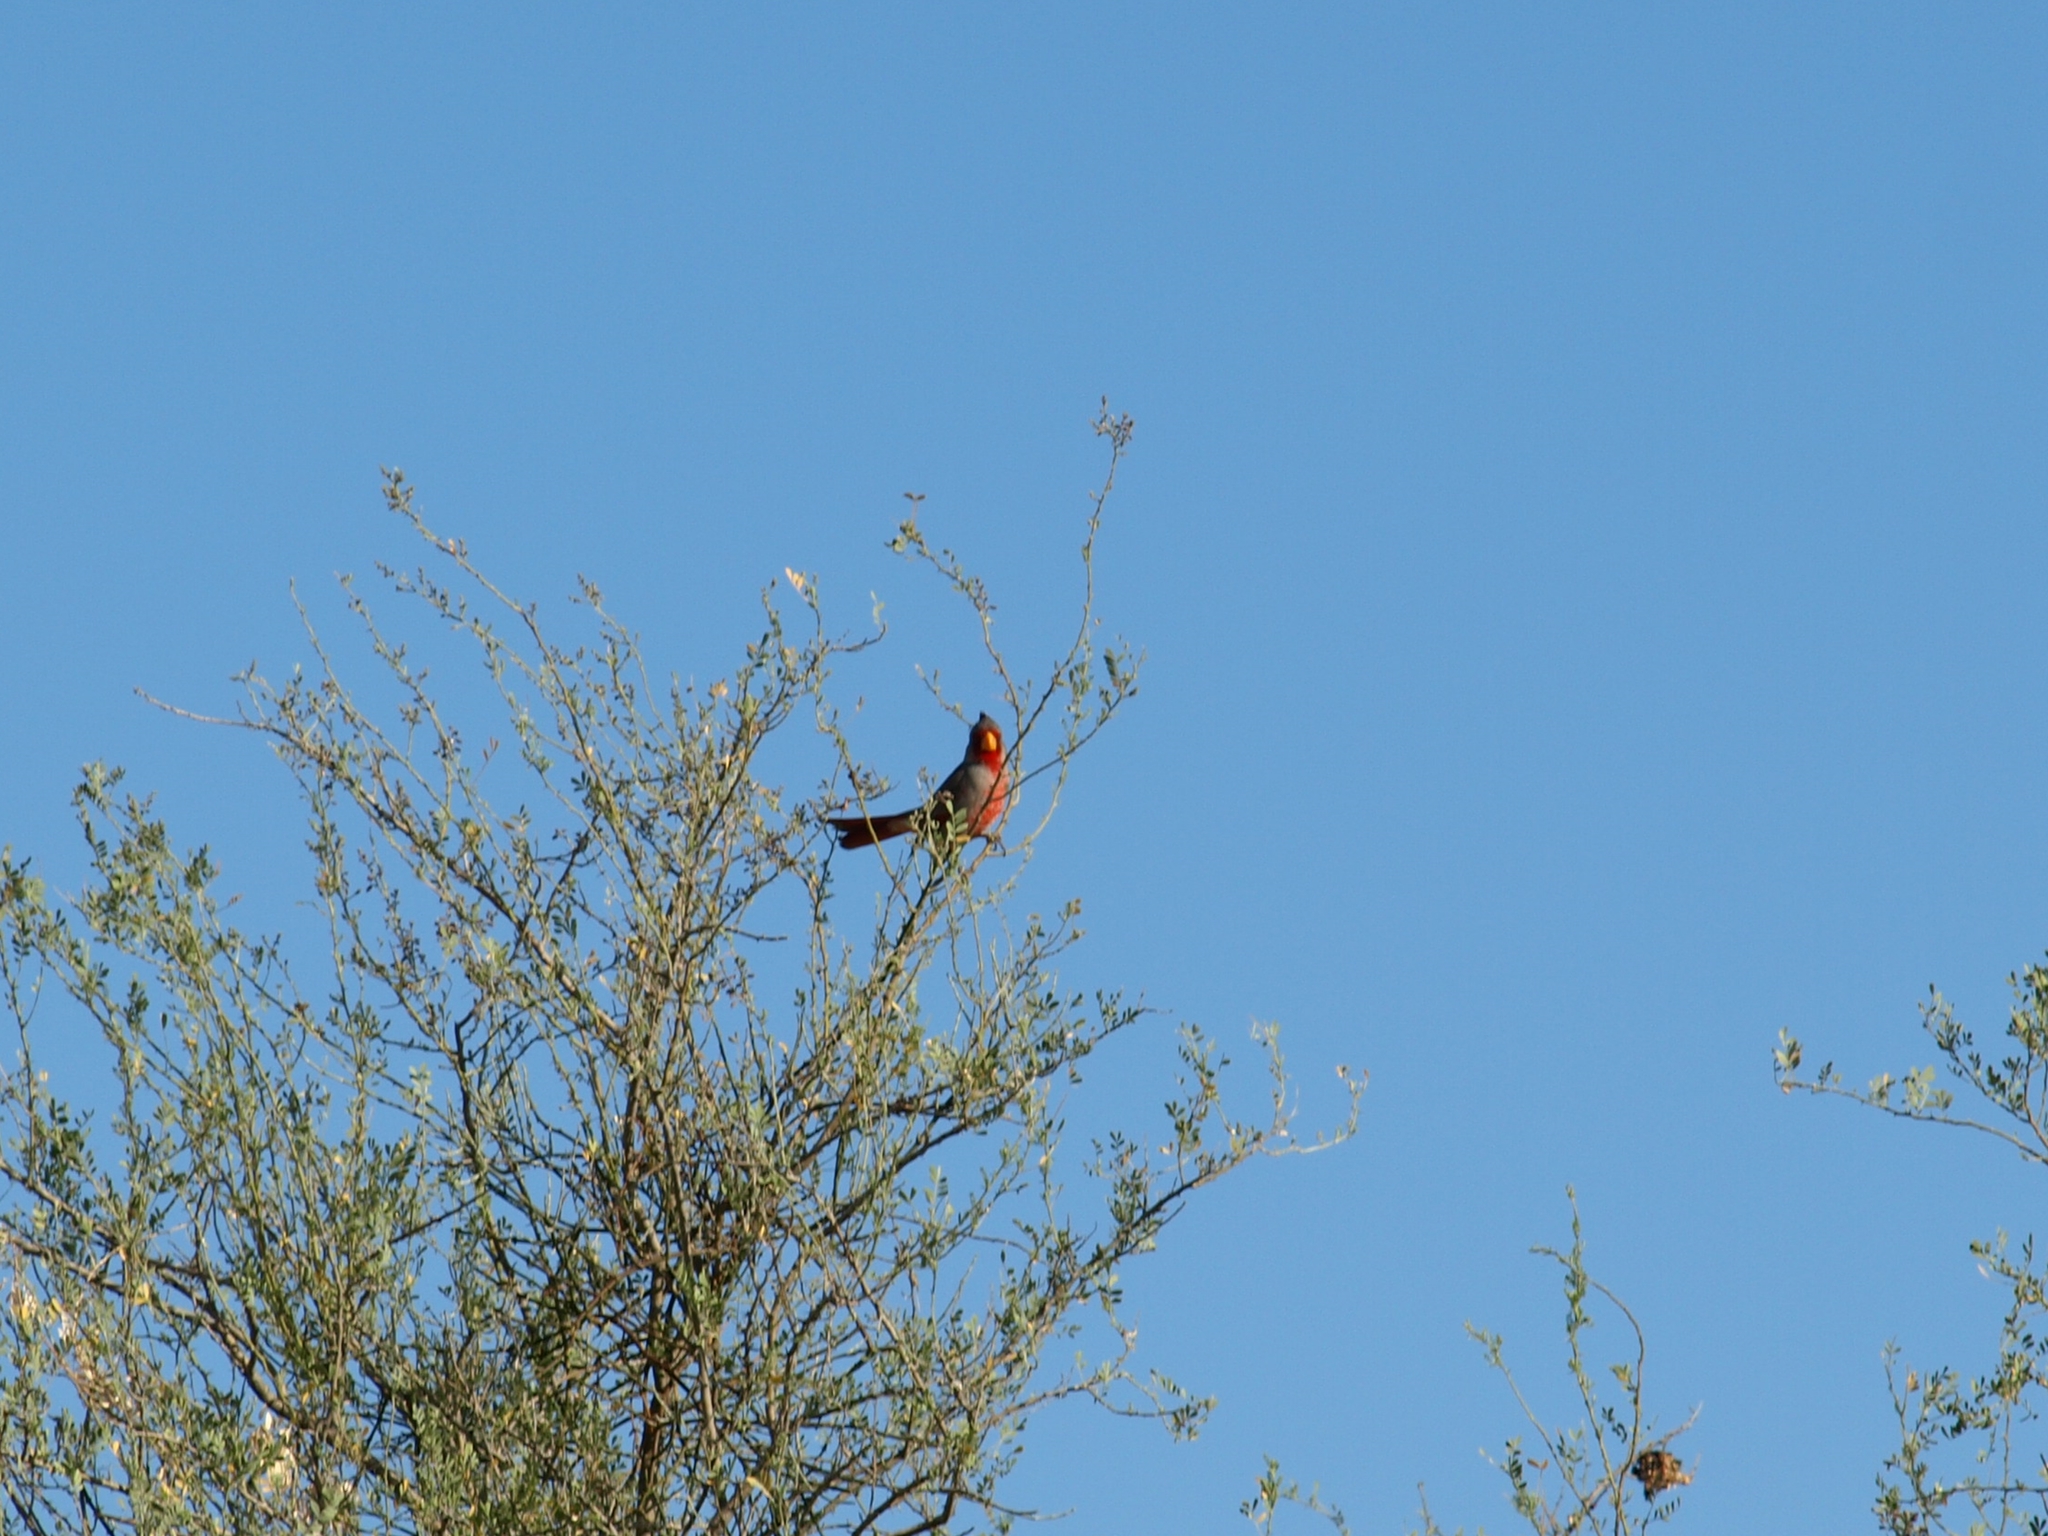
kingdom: Animalia
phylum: Chordata
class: Aves
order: Passeriformes
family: Cardinalidae
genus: Cardinalis
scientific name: Cardinalis sinuatus
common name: Pyrrhuloxia
